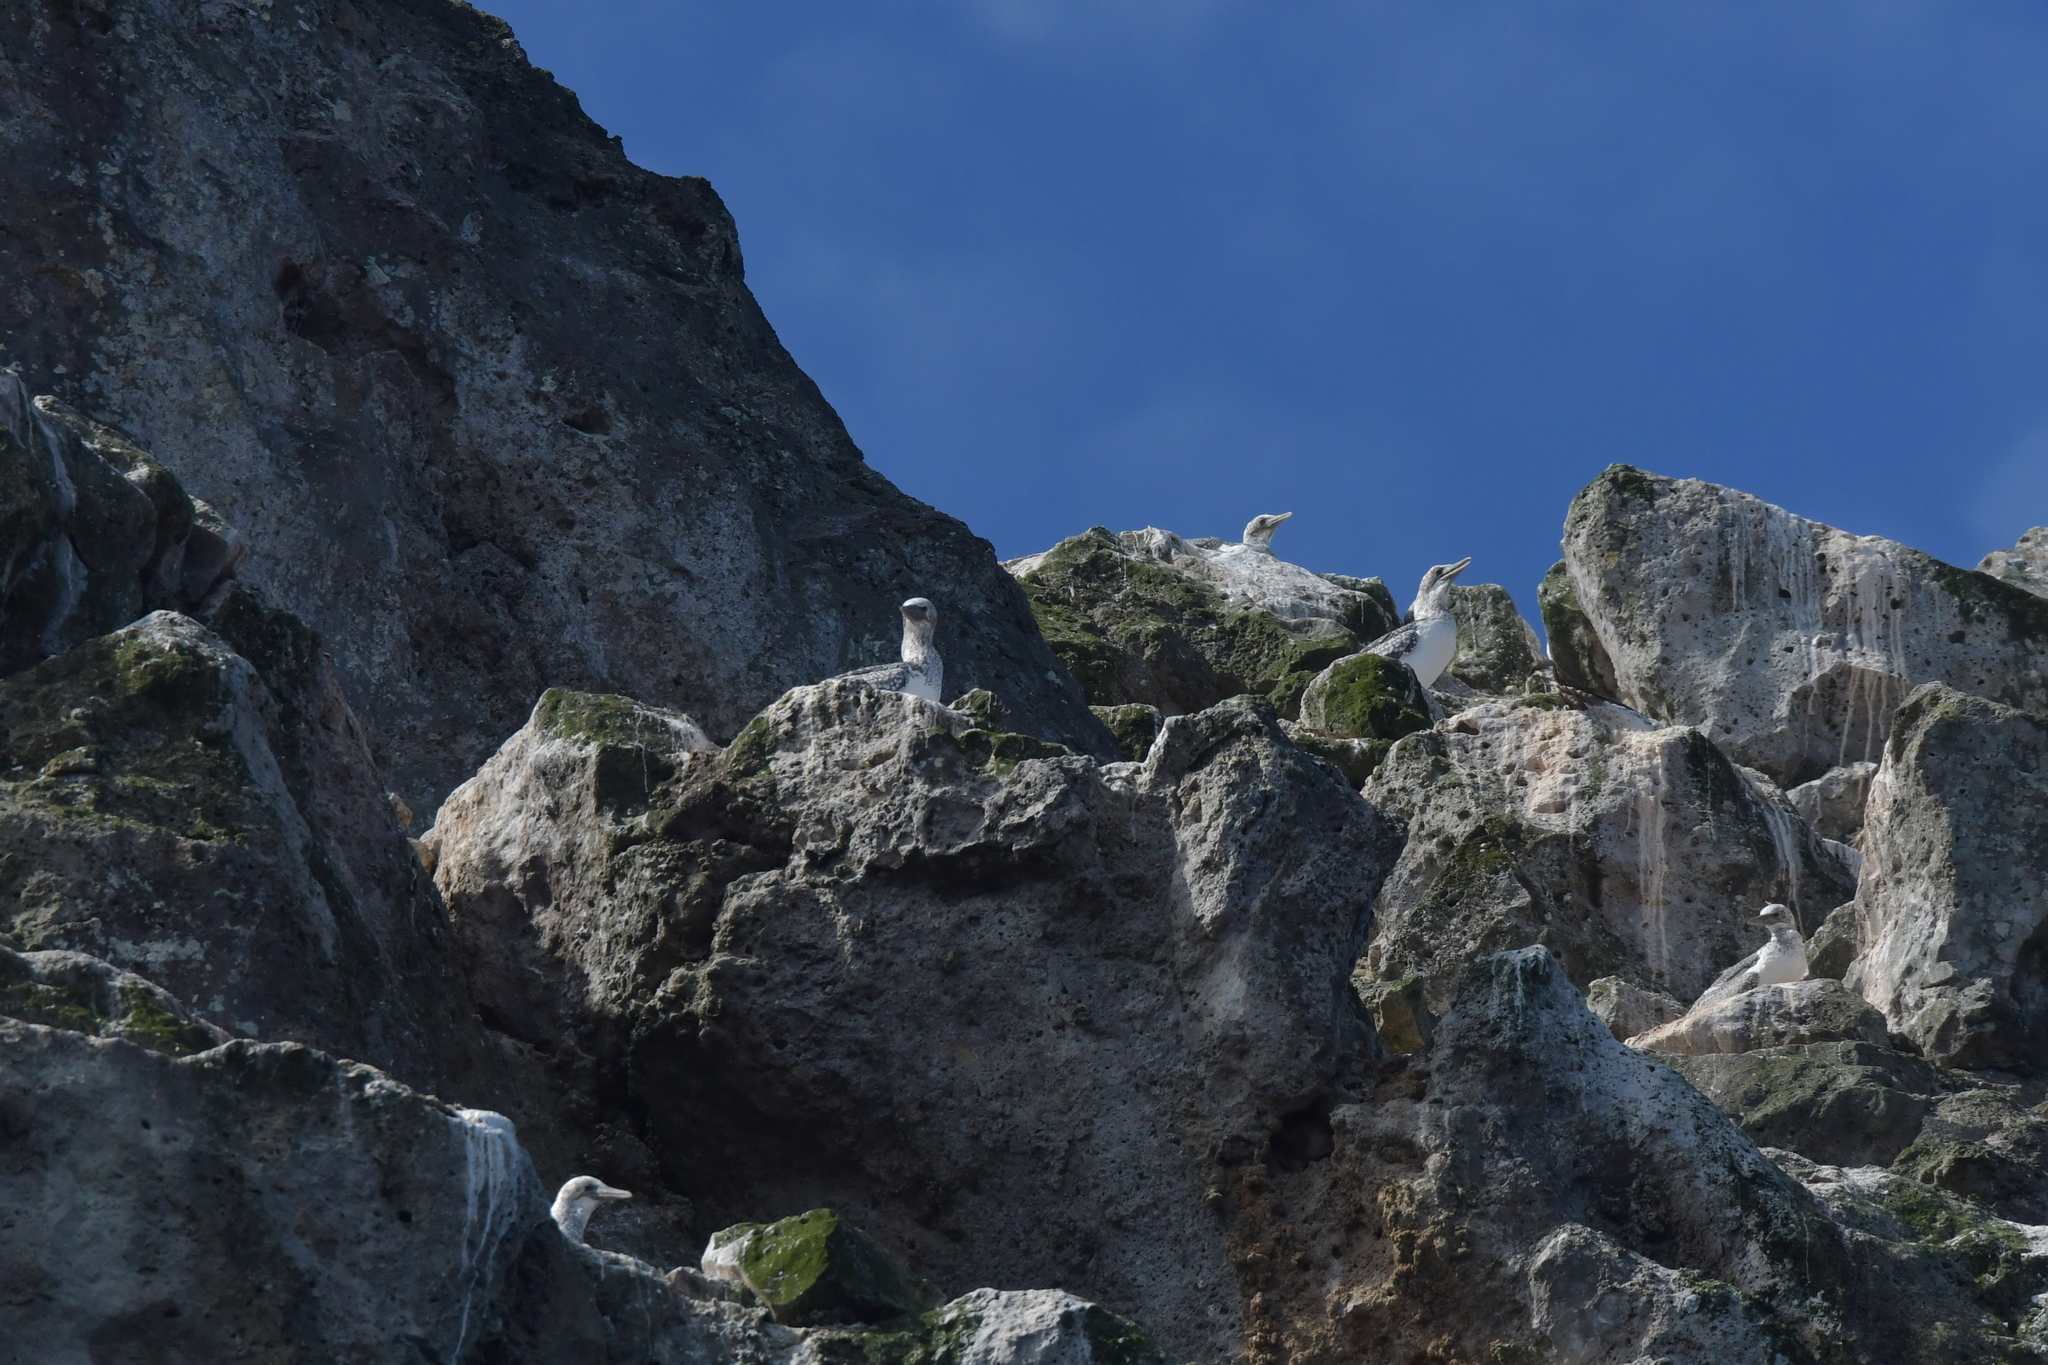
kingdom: Animalia
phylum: Chordata
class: Aves
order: Suliformes
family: Sulidae
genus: Morus
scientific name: Morus serrator
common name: Australasian gannet
